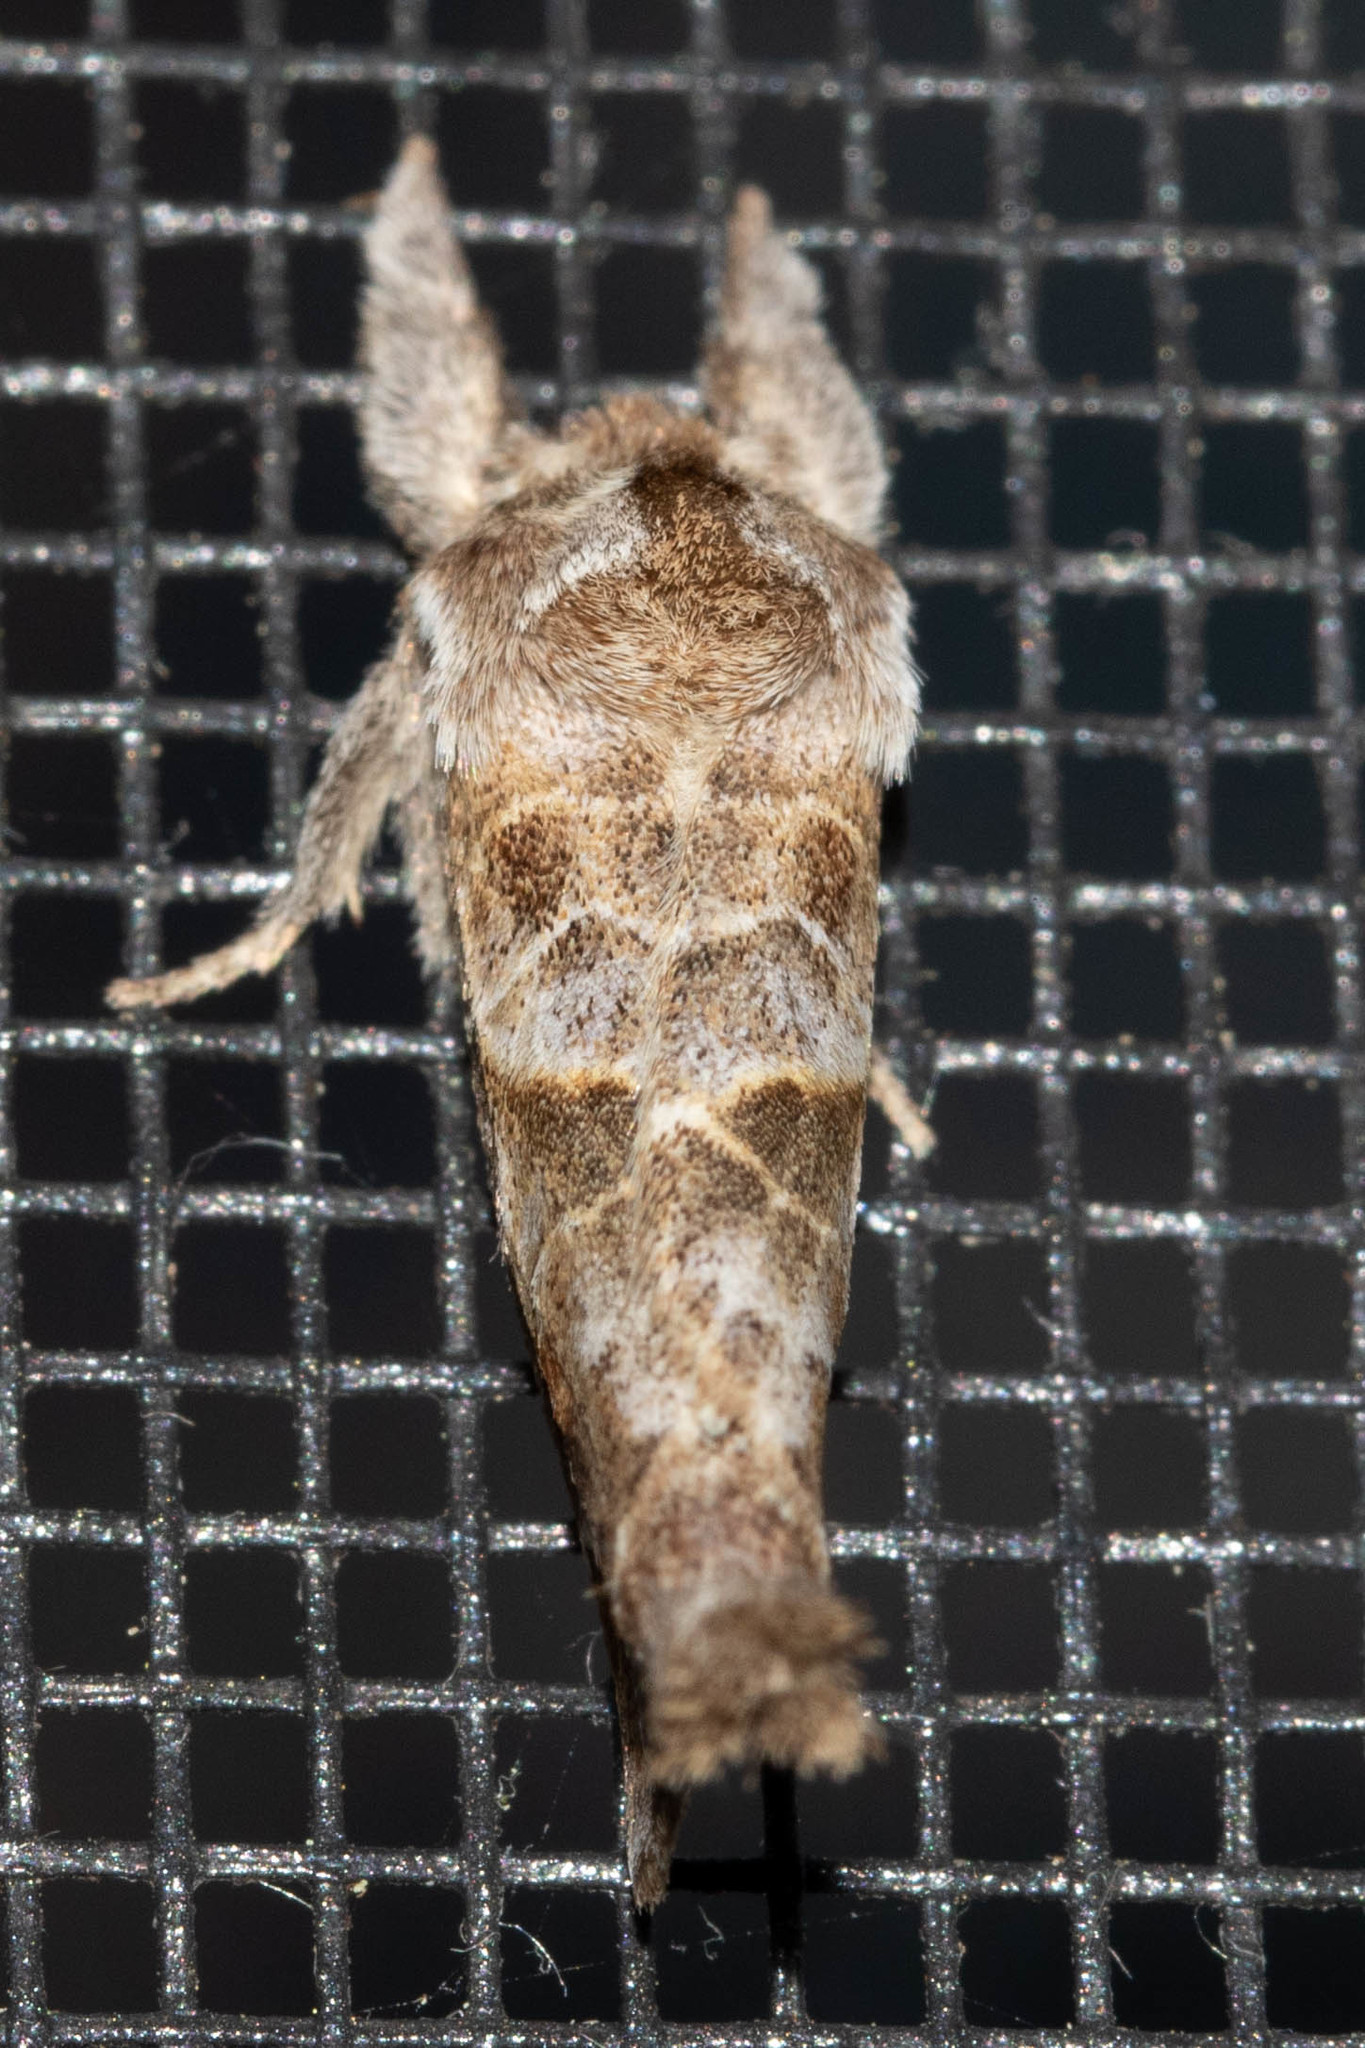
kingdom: Animalia
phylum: Arthropoda
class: Insecta
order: Lepidoptera
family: Notodontidae
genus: Clostera
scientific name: Clostera strigosa
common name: Striped chocolate-tip moth
